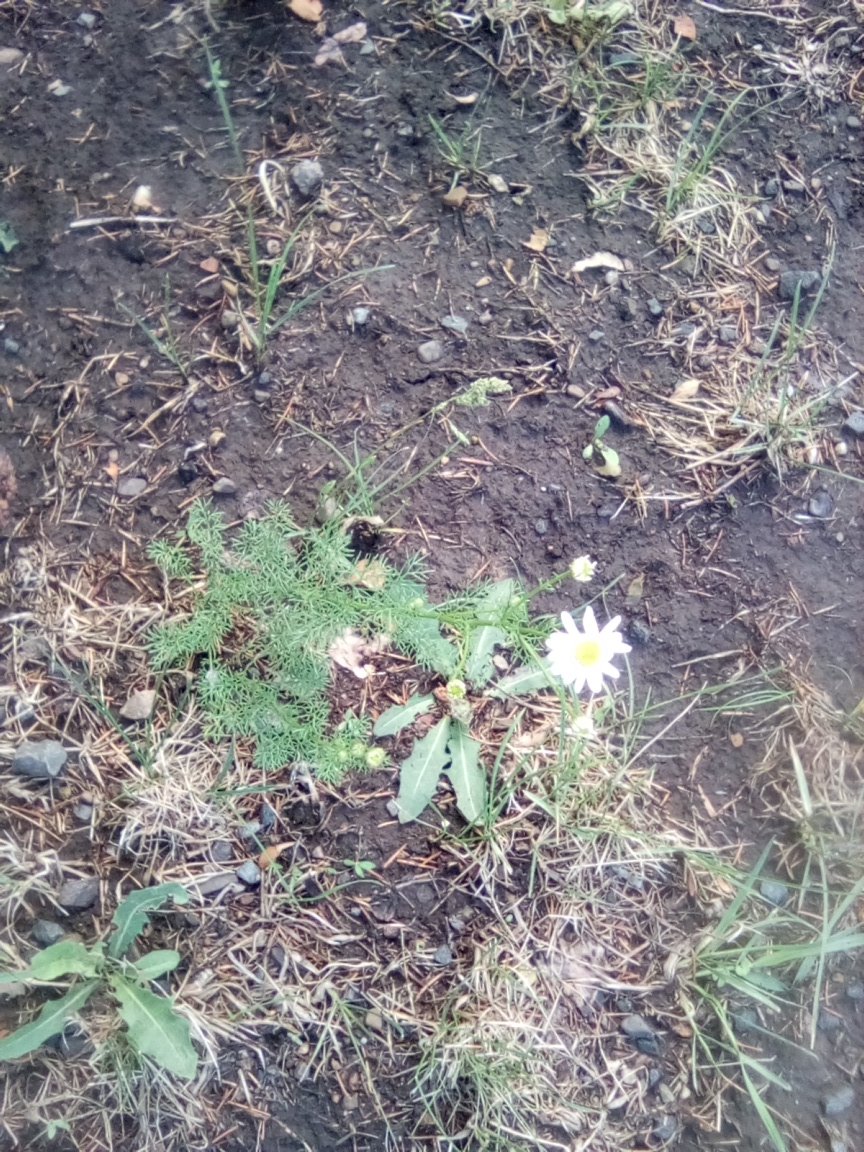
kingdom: Plantae
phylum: Tracheophyta
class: Magnoliopsida
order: Asterales
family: Asteraceae
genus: Tripleurospermum
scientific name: Tripleurospermum inodorum
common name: Scentless mayweed
